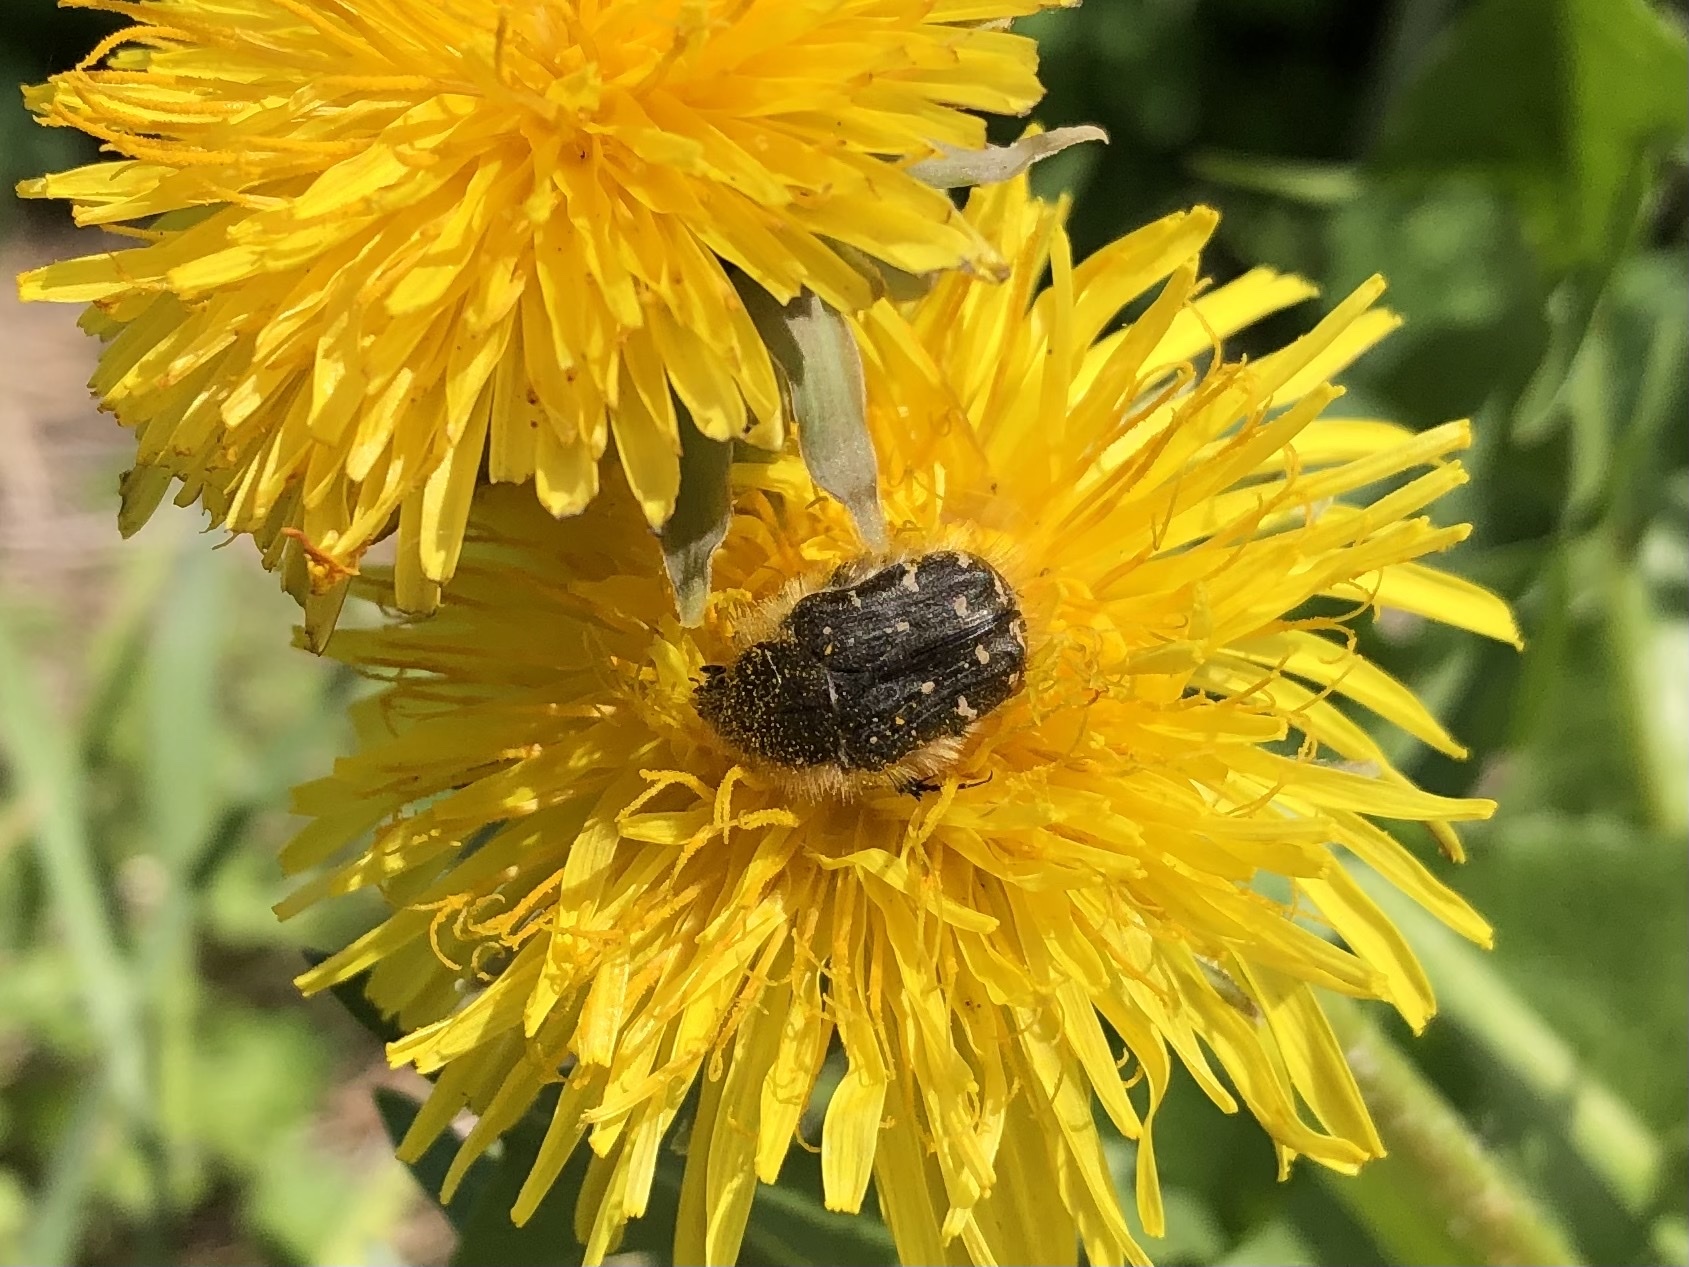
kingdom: Animalia
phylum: Arthropoda
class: Insecta
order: Coleoptera
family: Scarabaeidae
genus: Tropinota
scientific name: Tropinota hirta
